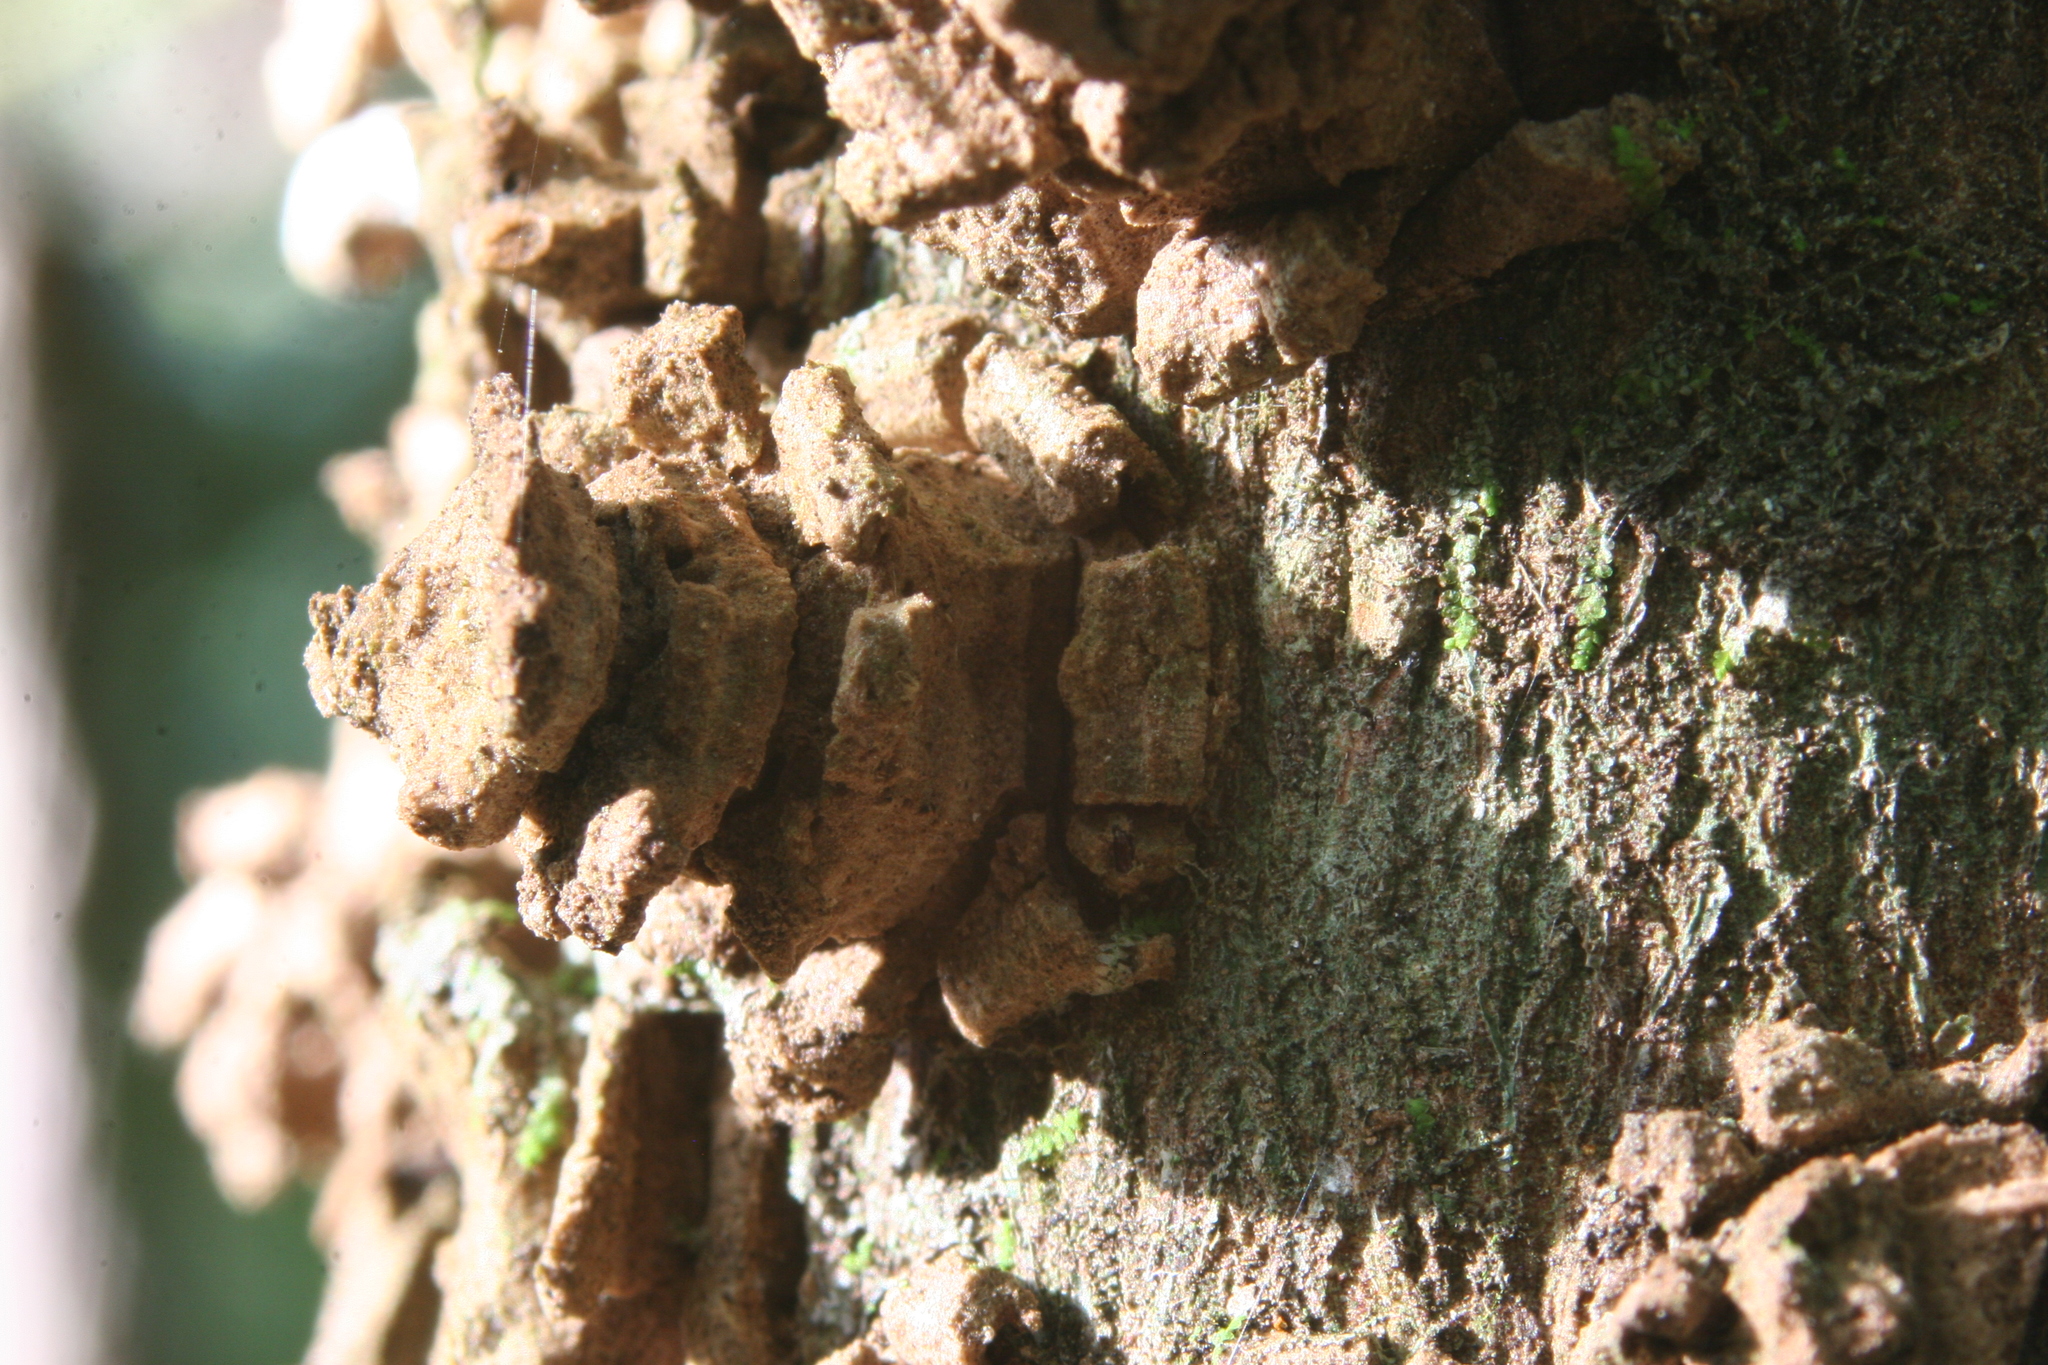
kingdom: Plantae
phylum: Tracheophyta
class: Magnoliopsida
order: Laurales
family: Monimiaceae
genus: Hedycarya
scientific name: Hedycarya arborea
